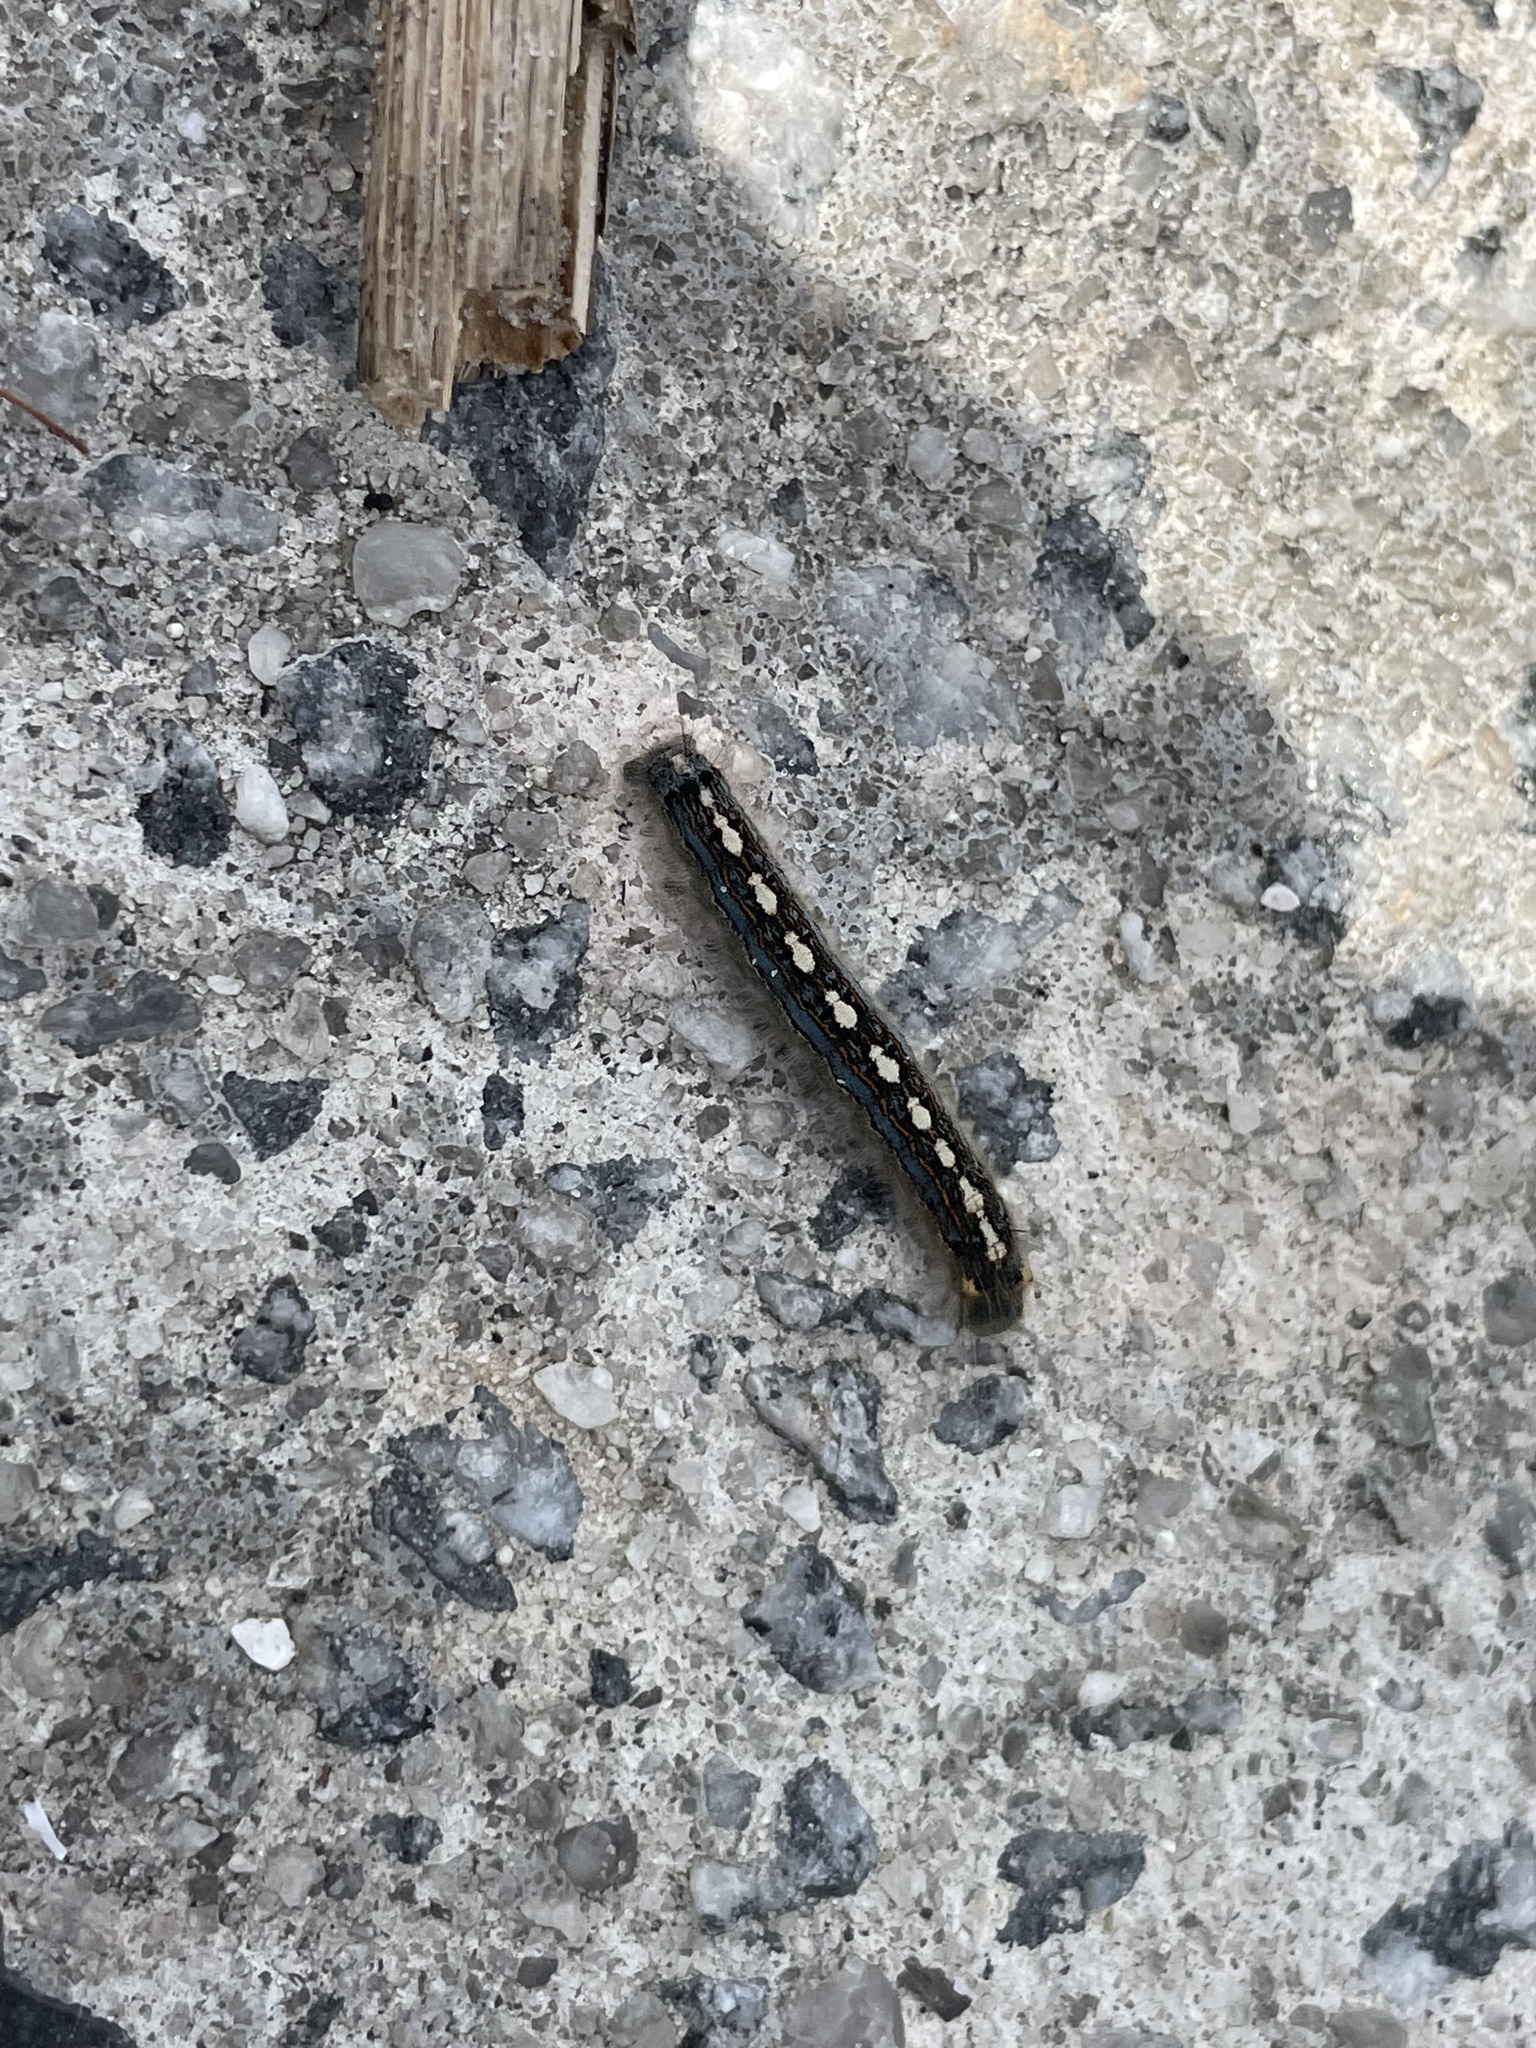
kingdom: Animalia
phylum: Arthropoda
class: Insecta
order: Lepidoptera
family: Lasiocampidae
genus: Malacosoma
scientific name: Malacosoma disstria
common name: Forest tent caterpillar
